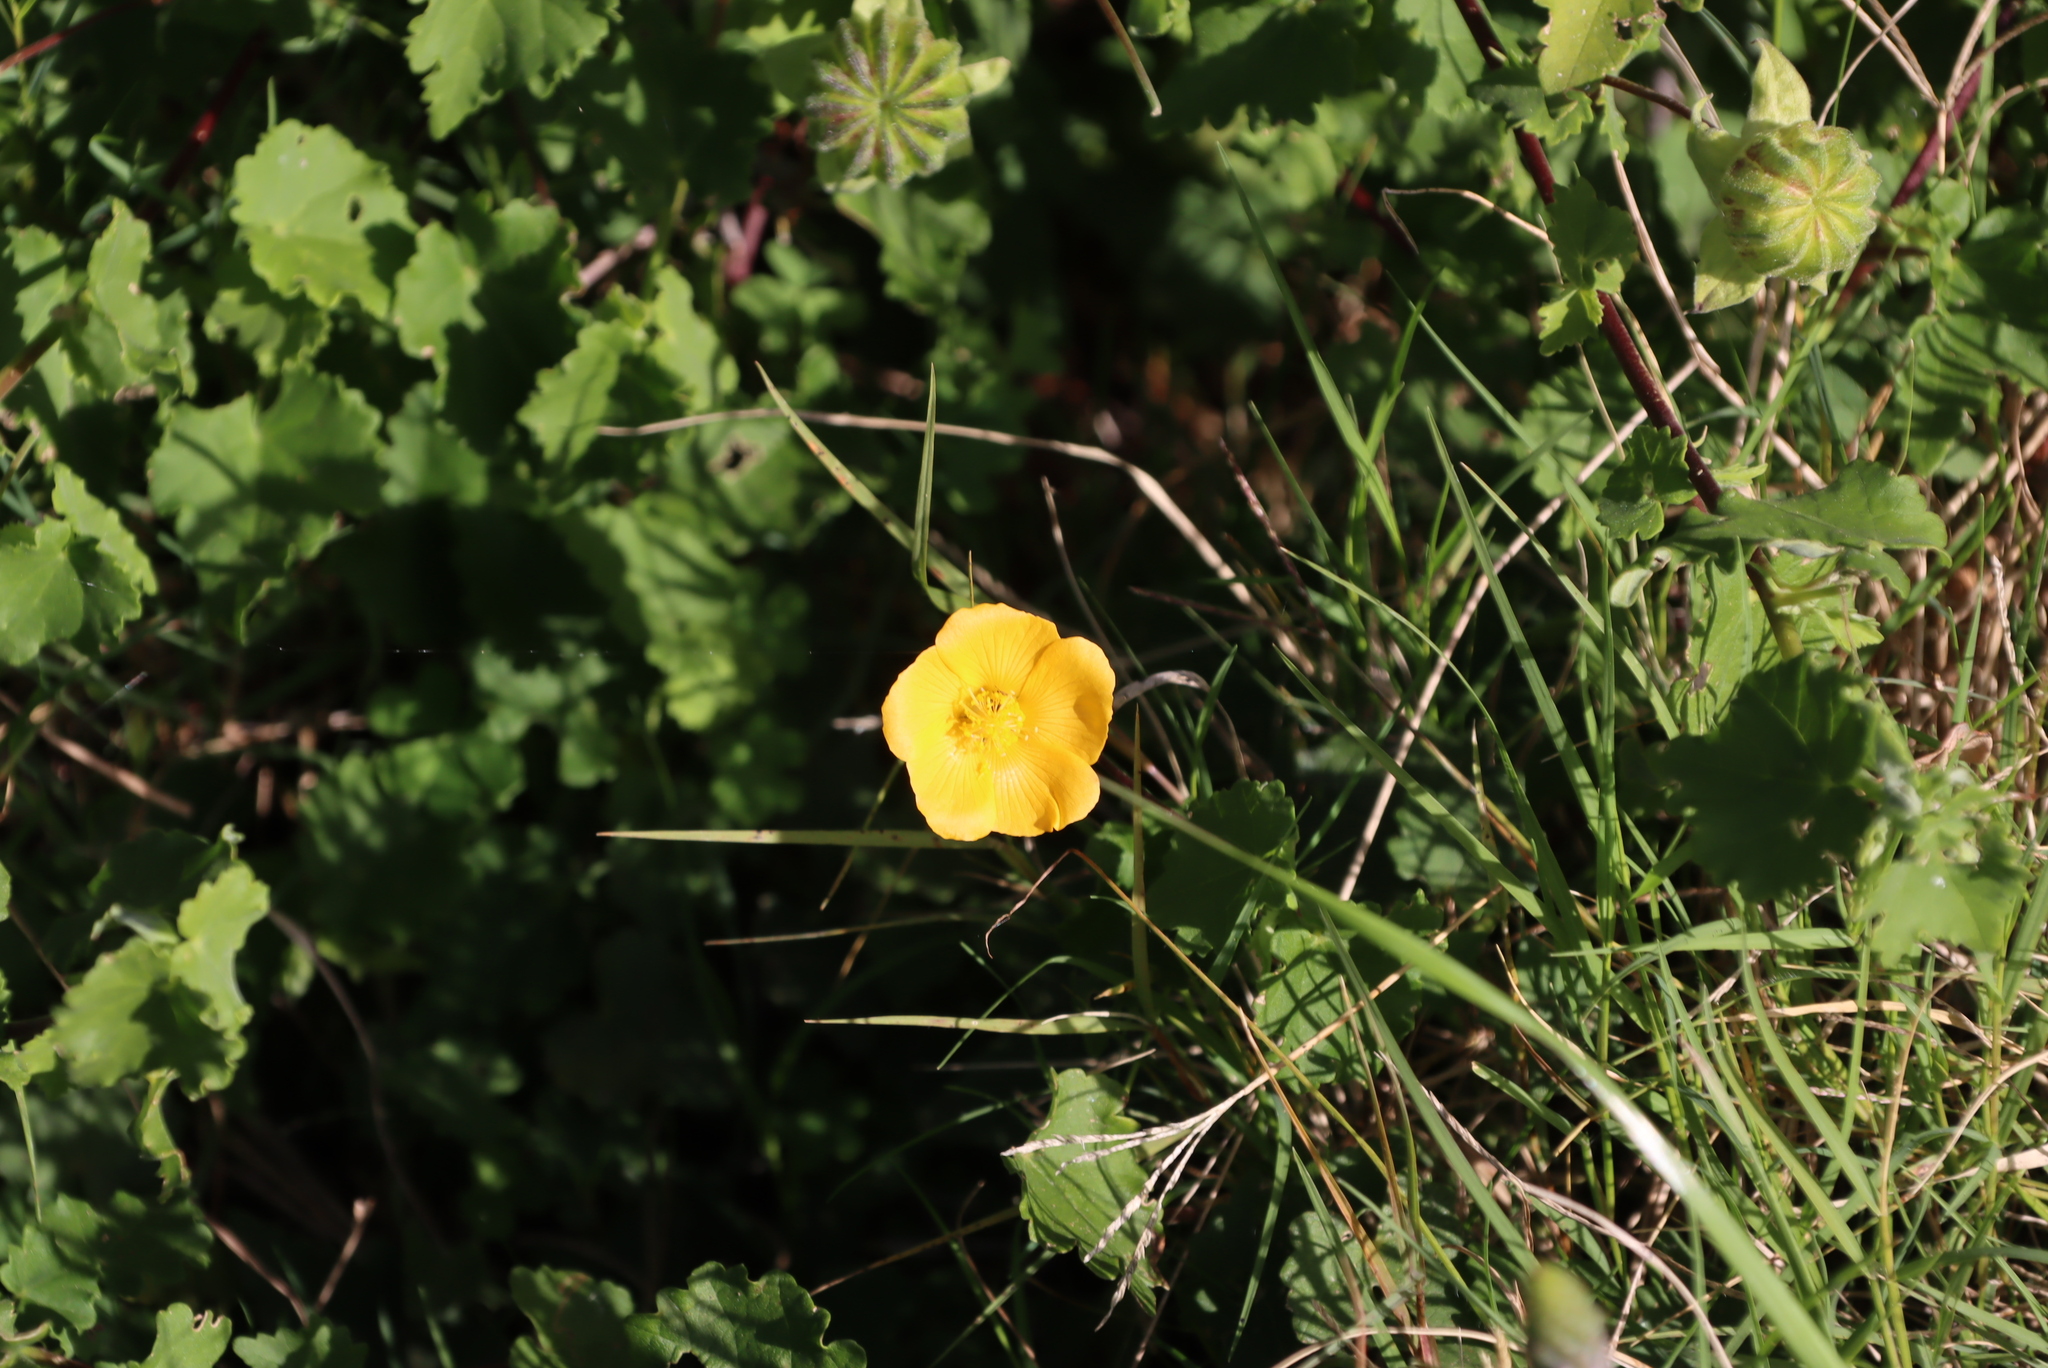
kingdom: Plantae
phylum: Tracheophyta
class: Magnoliopsida
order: Malvales
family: Malvaceae
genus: Abutilon
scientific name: Abutilon sonneratianum
